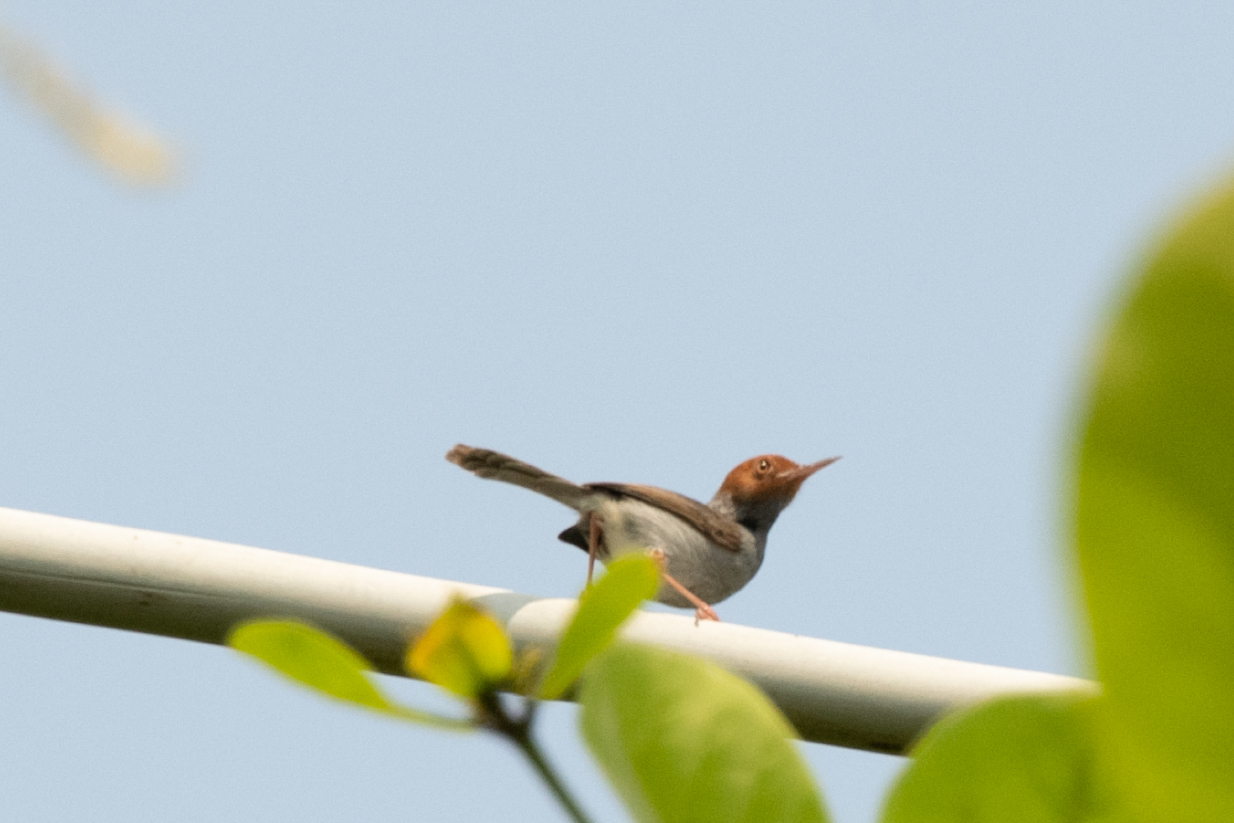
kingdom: Animalia
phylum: Chordata
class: Aves
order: Passeriformes
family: Cisticolidae
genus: Orthotomus
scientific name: Orthotomus ruficeps
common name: Ashy tailorbird
